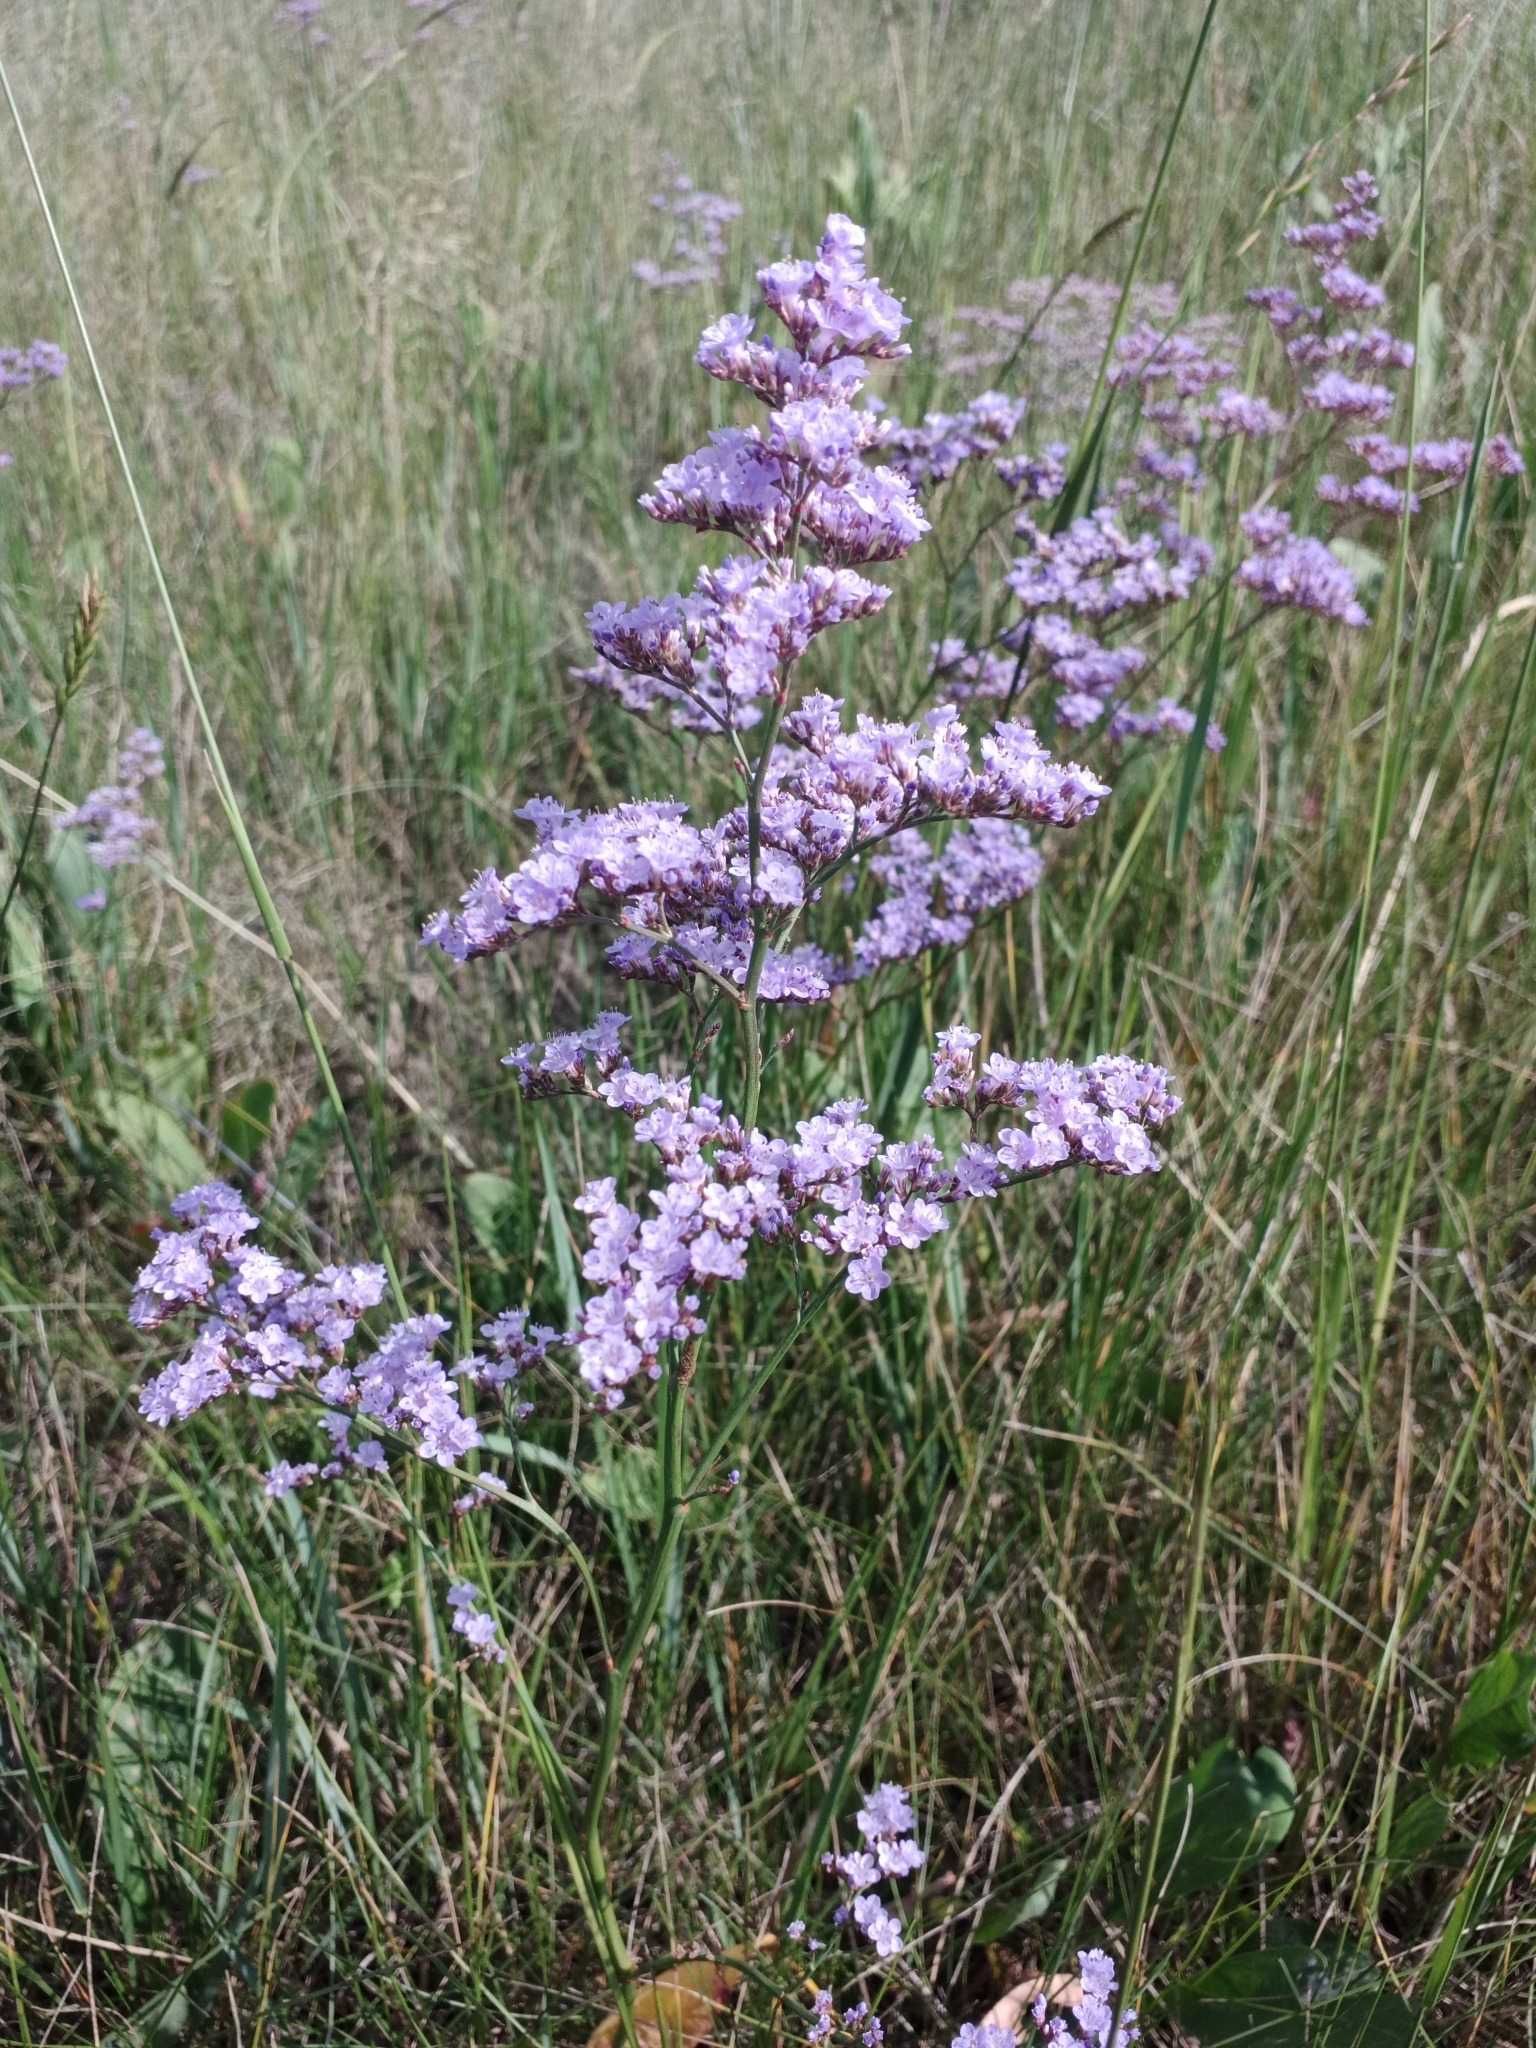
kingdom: Plantae
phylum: Tracheophyta
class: Magnoliopsida
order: Caryophyllales
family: Plumbaginaceae
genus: Limonium
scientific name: Limonium gmelini
